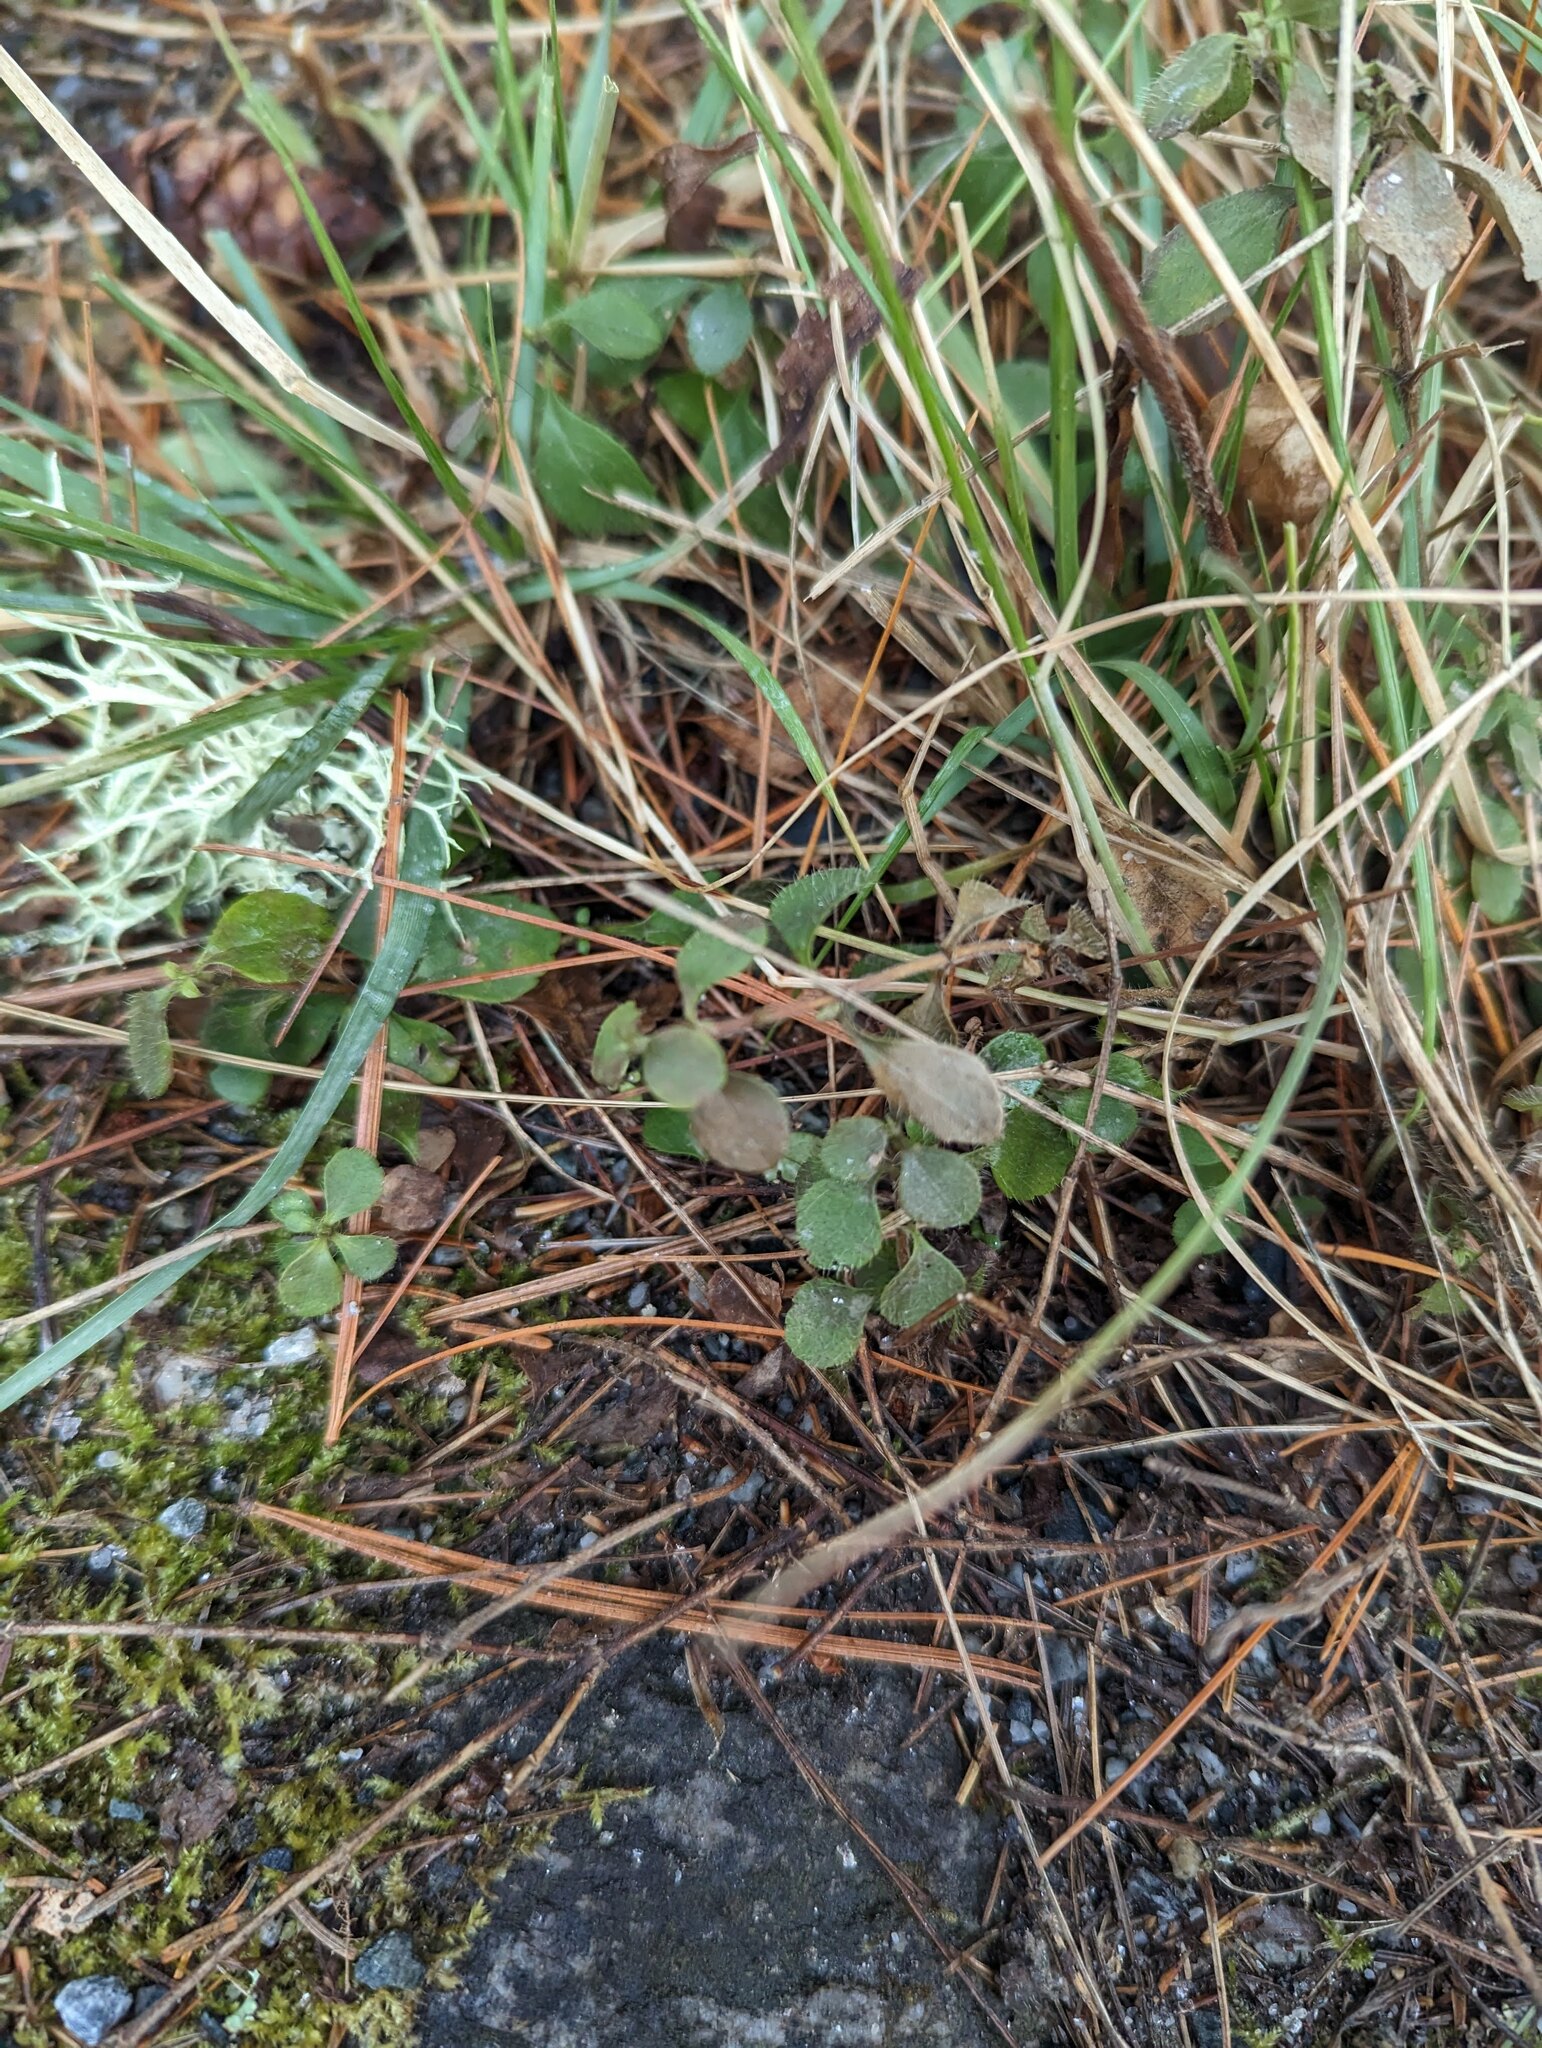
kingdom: Plantae
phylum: Tracheophyta
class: Magnoliopsida
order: Dipsacales
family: Caprifoliaceae
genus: Linnaea
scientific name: Linnaea borealis
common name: Twinflower
